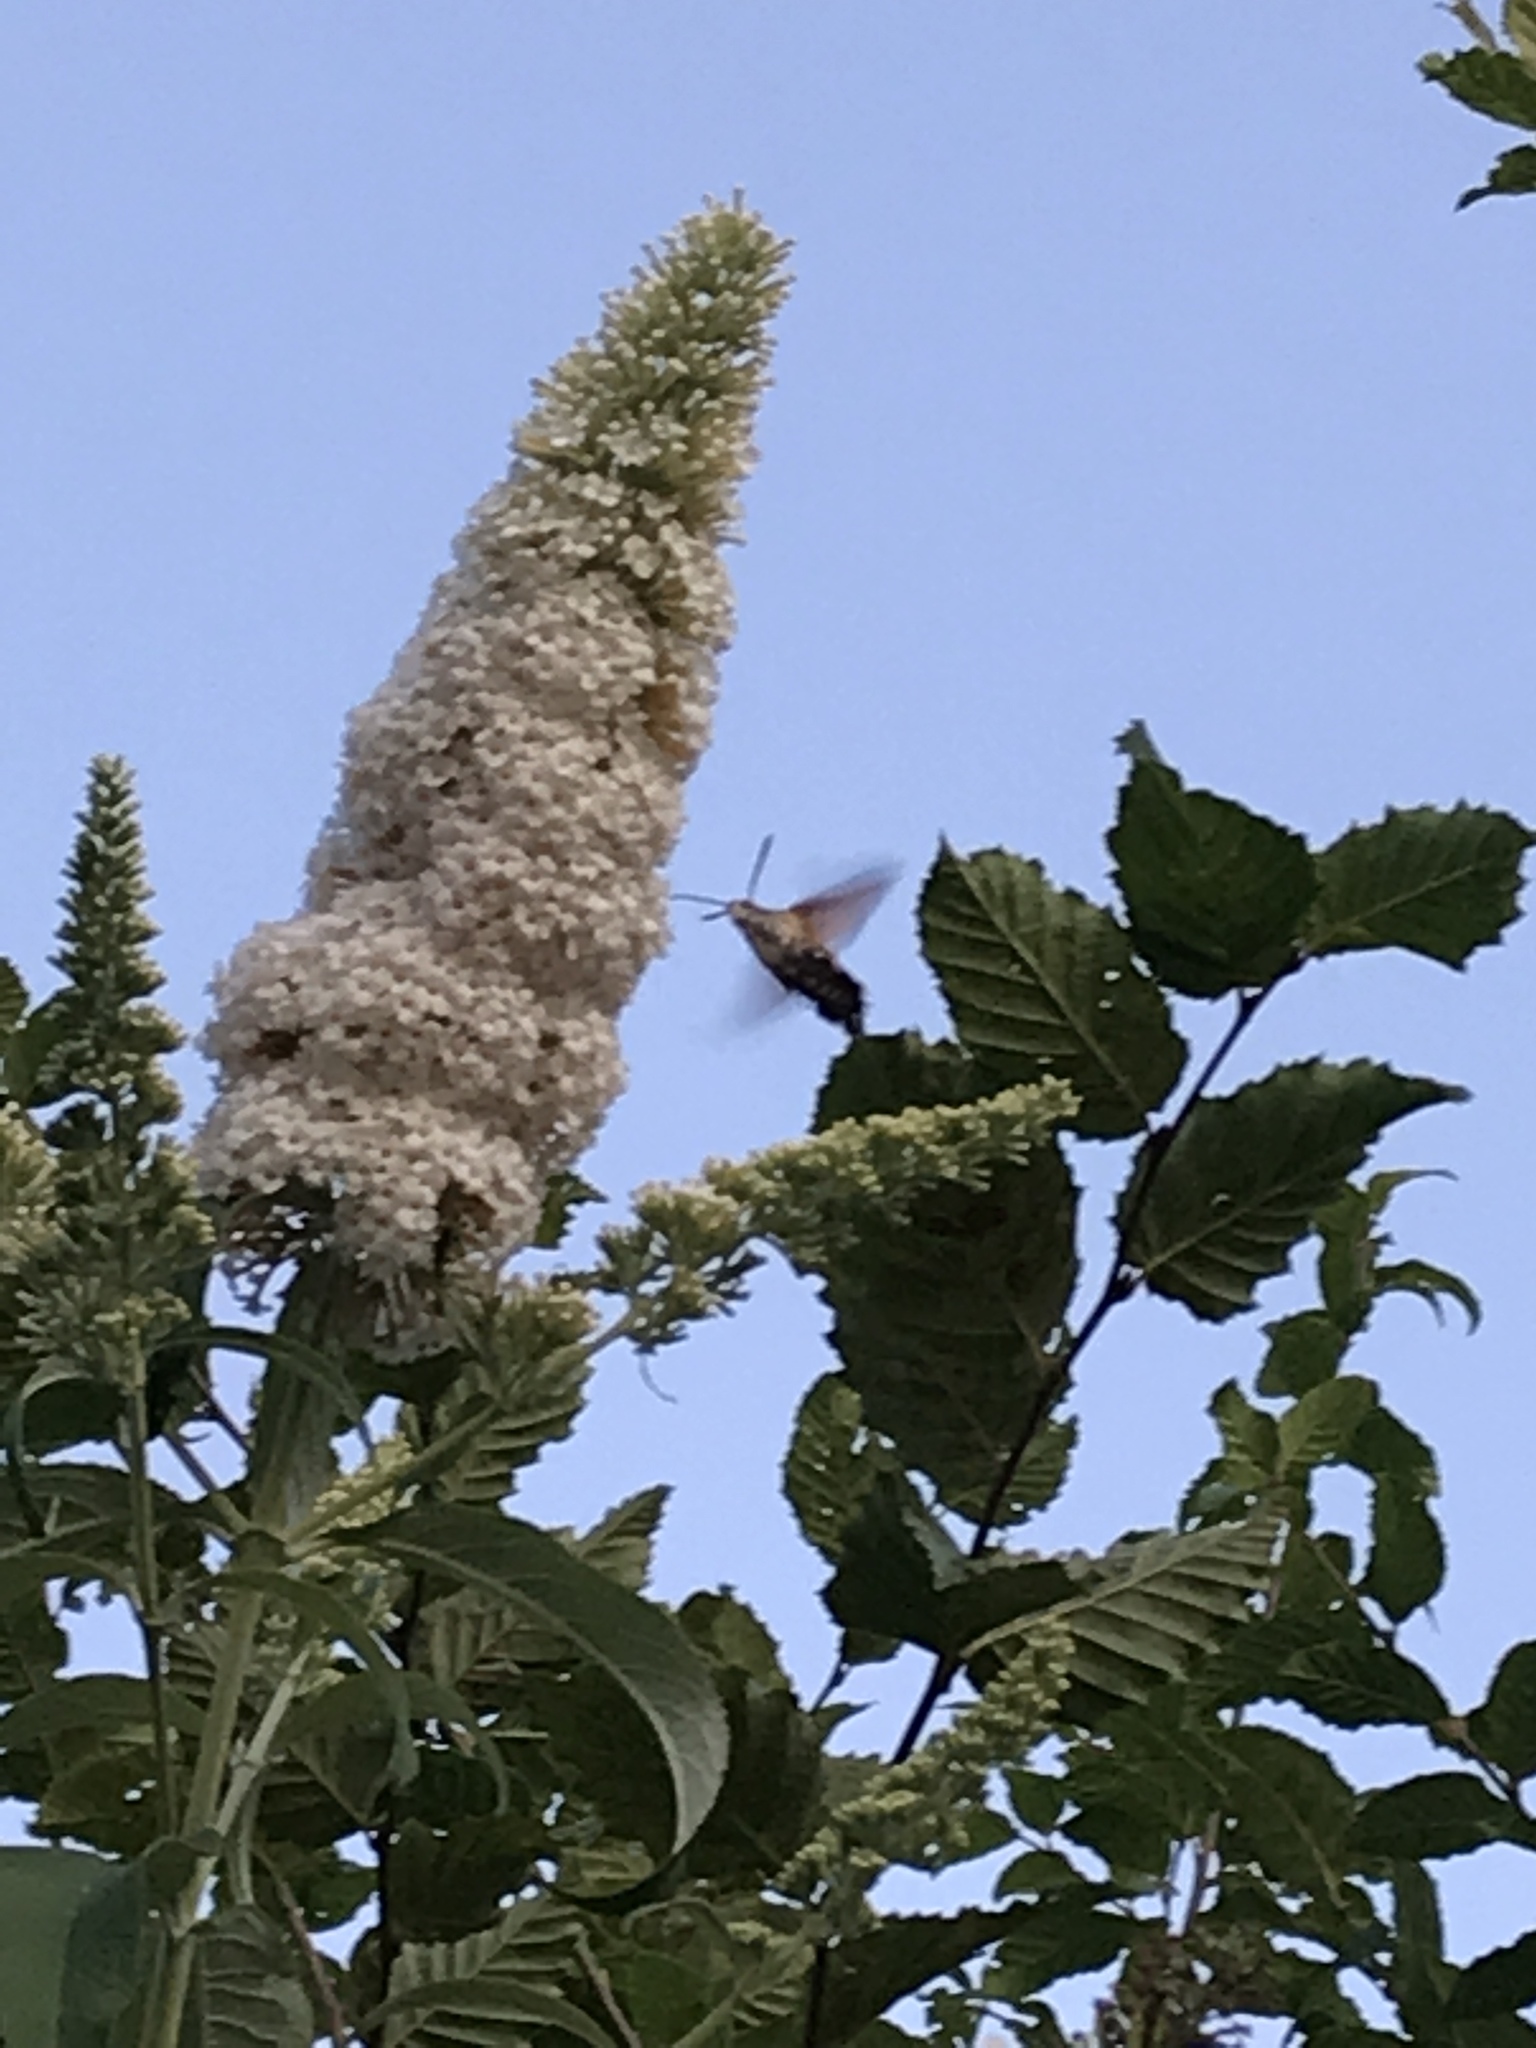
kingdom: Animalia
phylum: Arthropoda
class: Insecta
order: Lepidoptera
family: Sphingidae
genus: Macroglossum
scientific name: Macroglossum stellatarum
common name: Humming-bird hawk-moth
